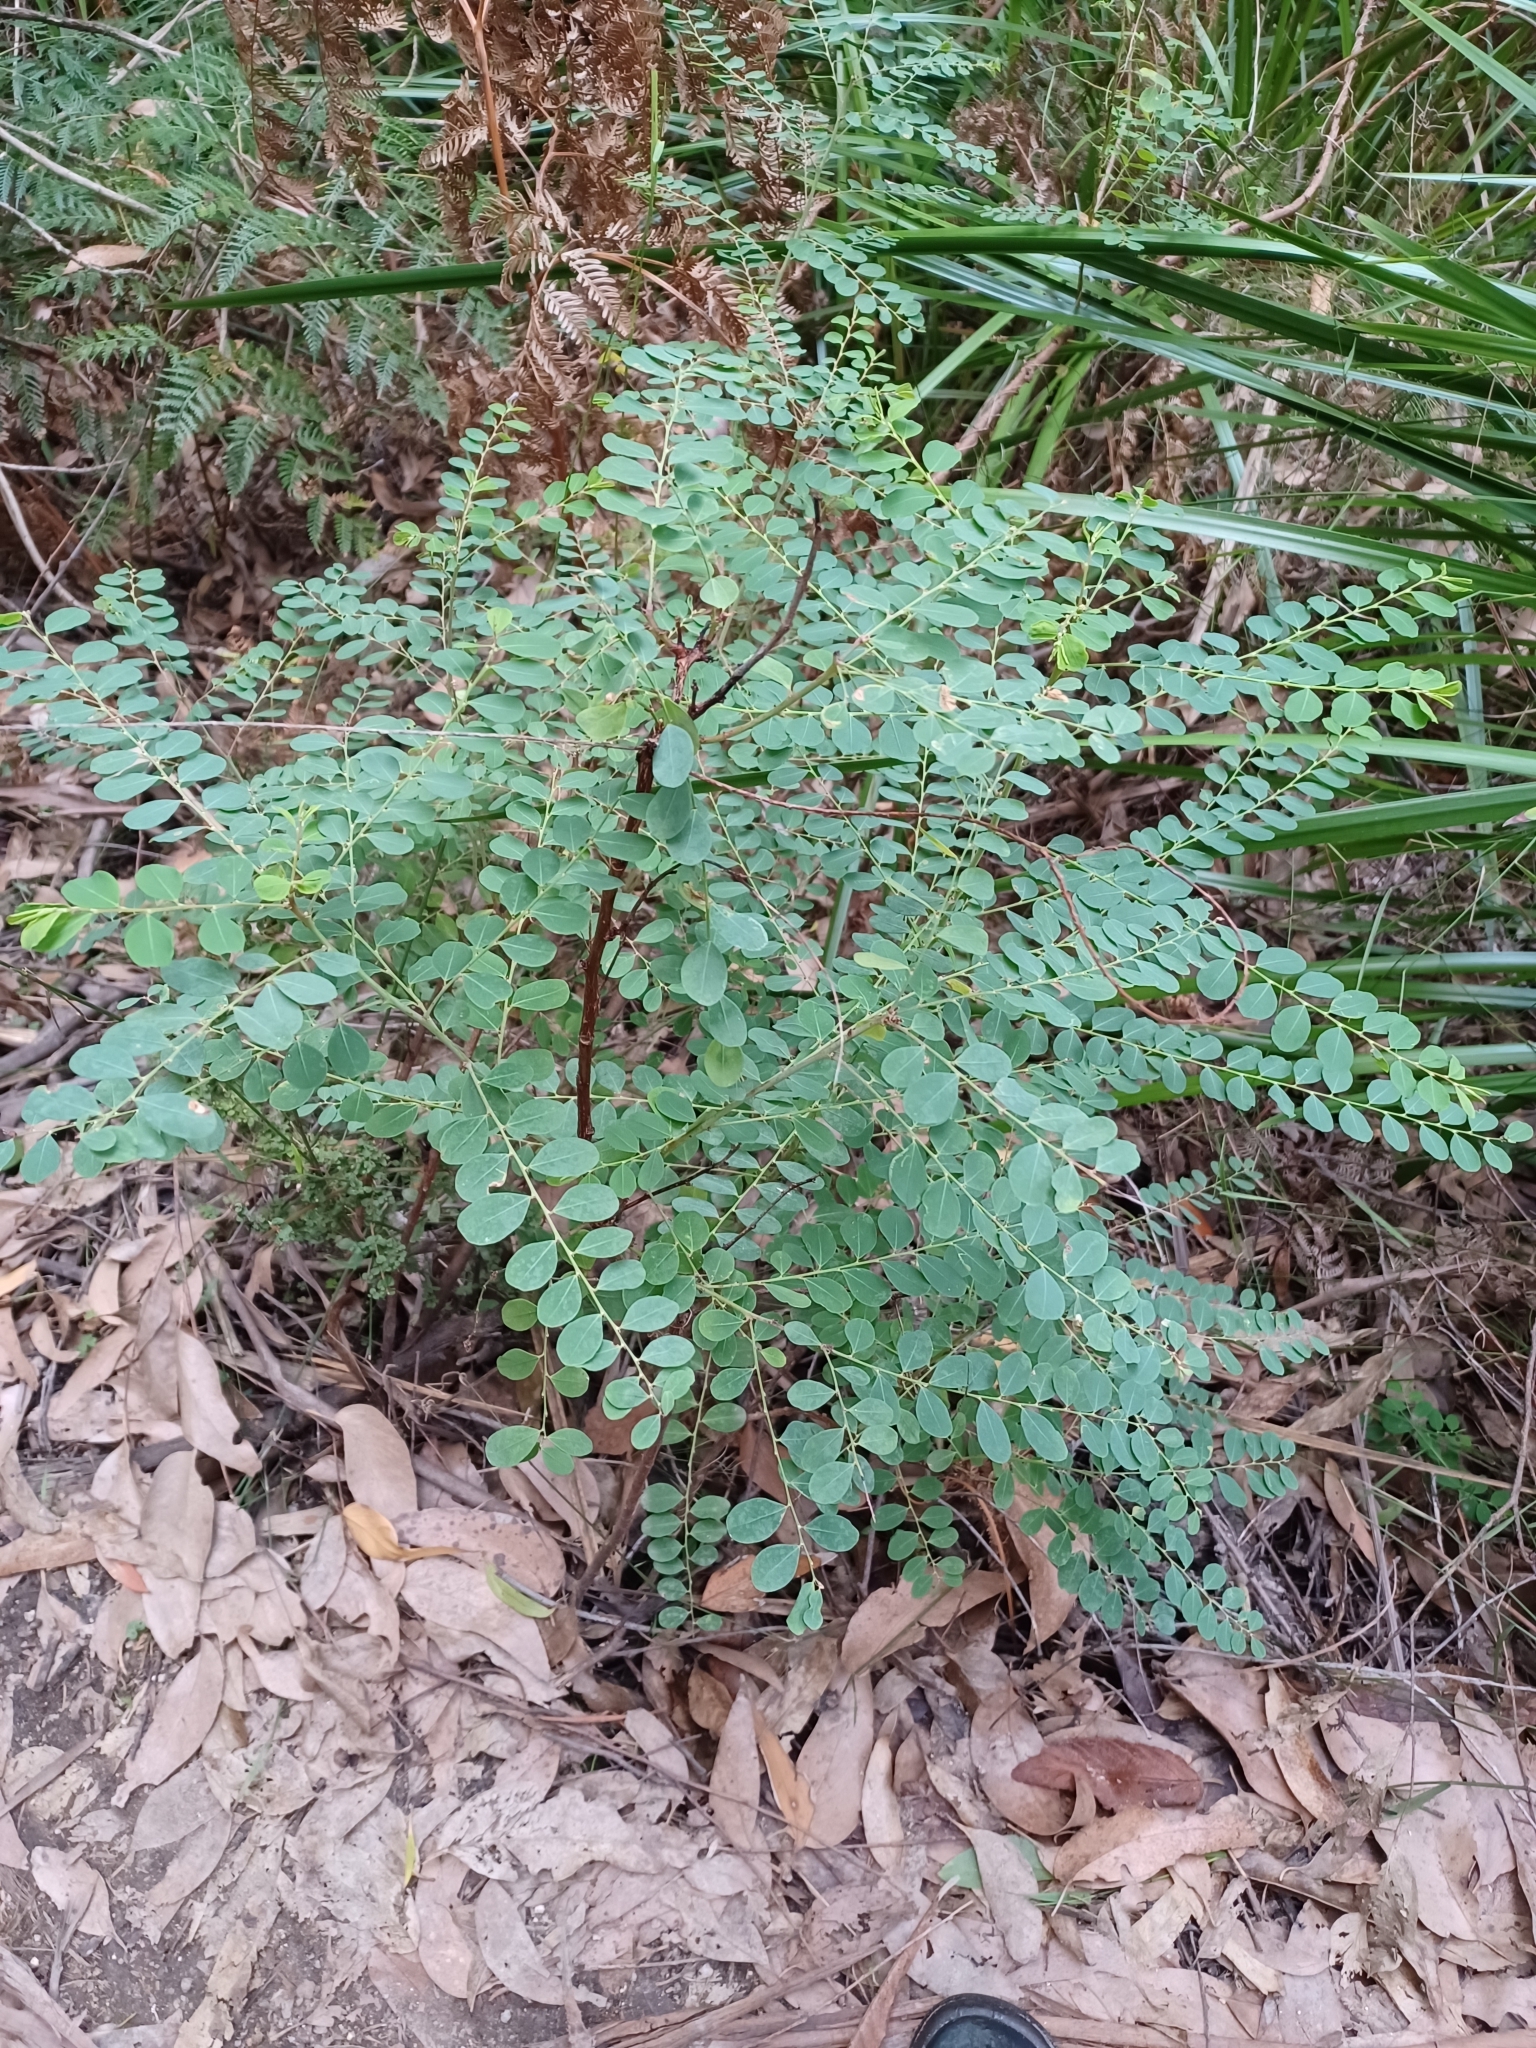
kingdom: Plantae
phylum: Tracheophyta
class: Magnoliopsida
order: Fabales
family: Fabaceae
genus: Indigofera
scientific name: Indigofera australis
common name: Australian indigo
